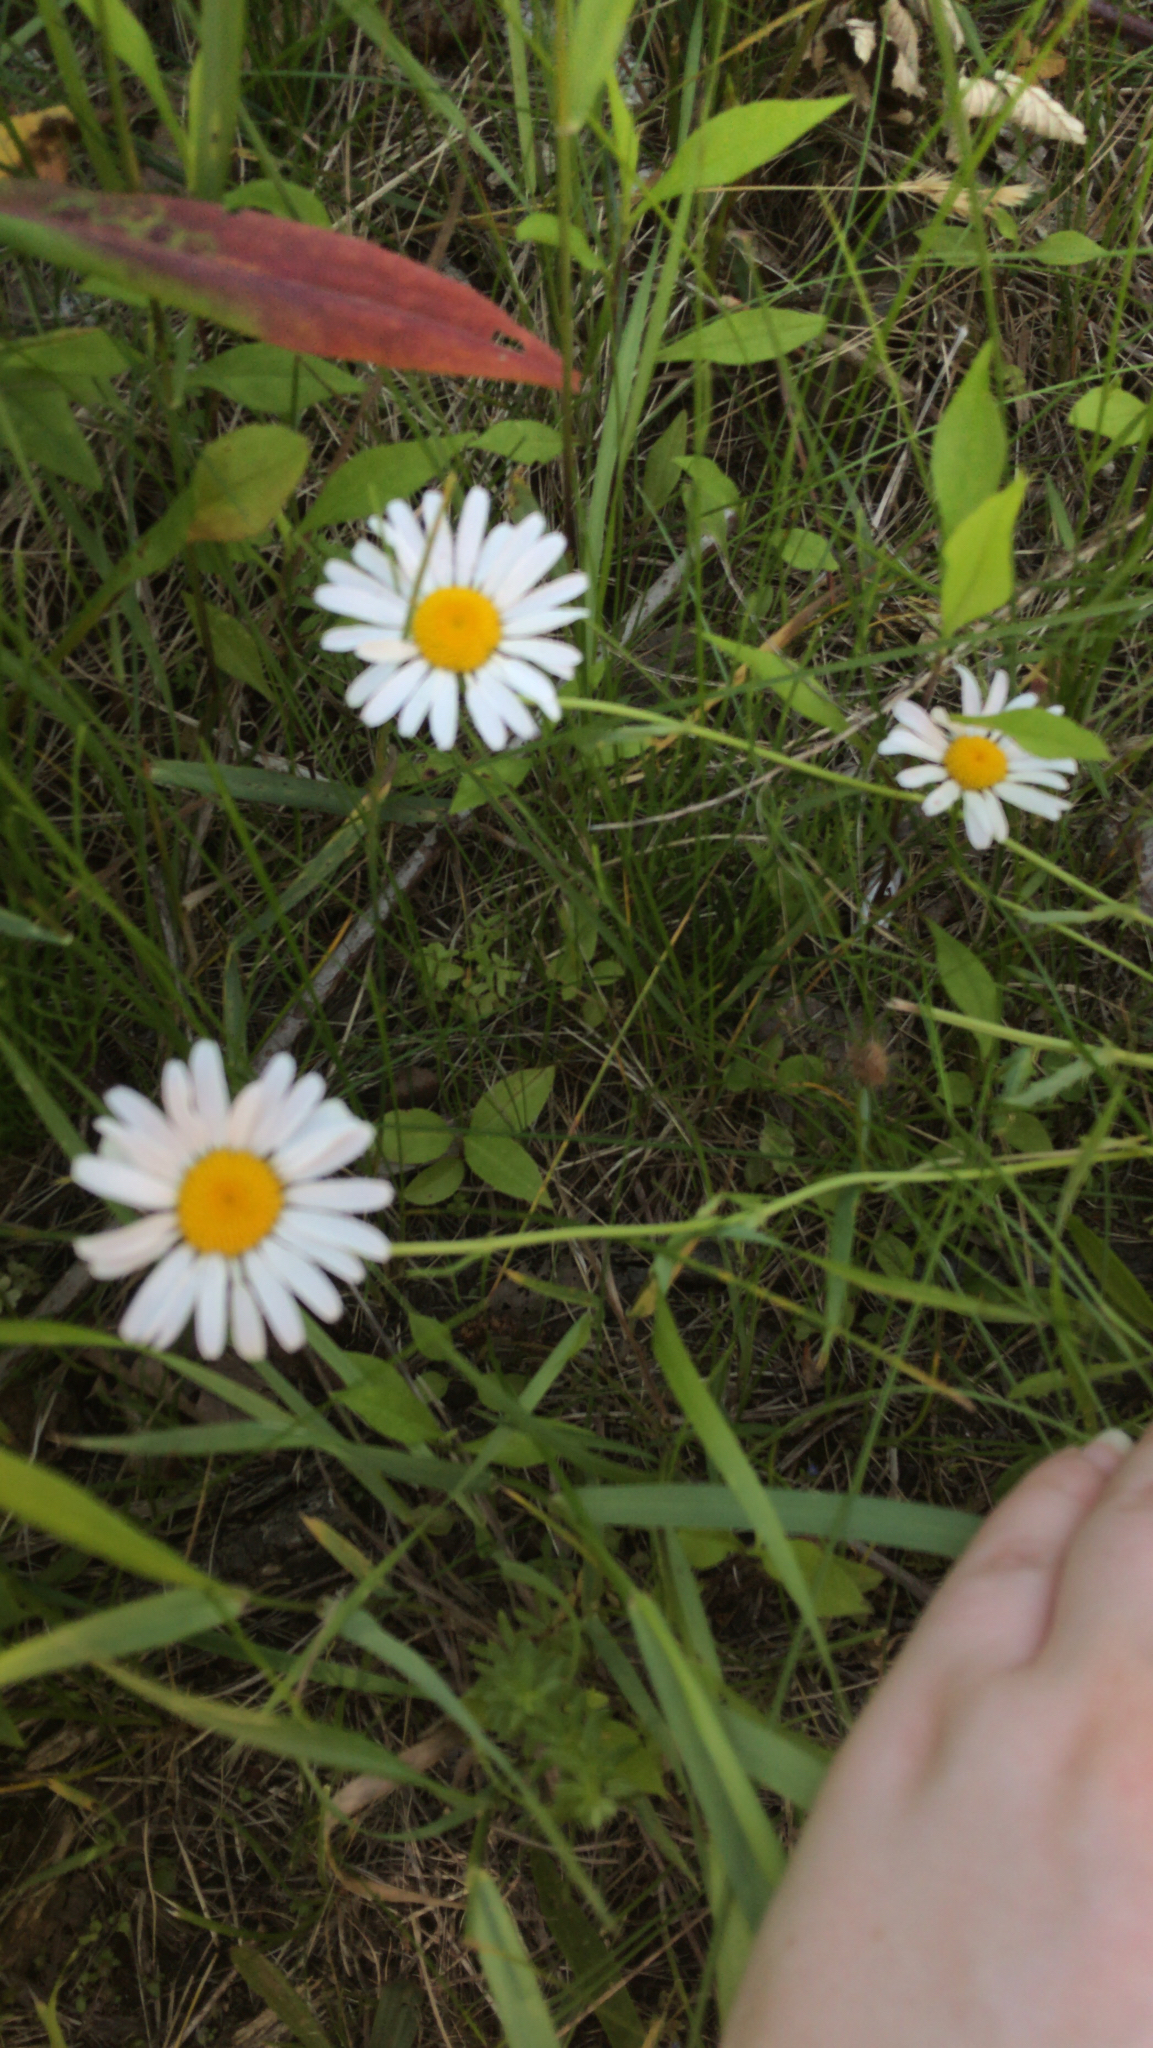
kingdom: Plantae
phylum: Tracheophyta
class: Magnoliopsida
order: Asterales
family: Asteraceae
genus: Leucanthemum
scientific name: Leucanthemum vulgare
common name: Oxeye daisy
